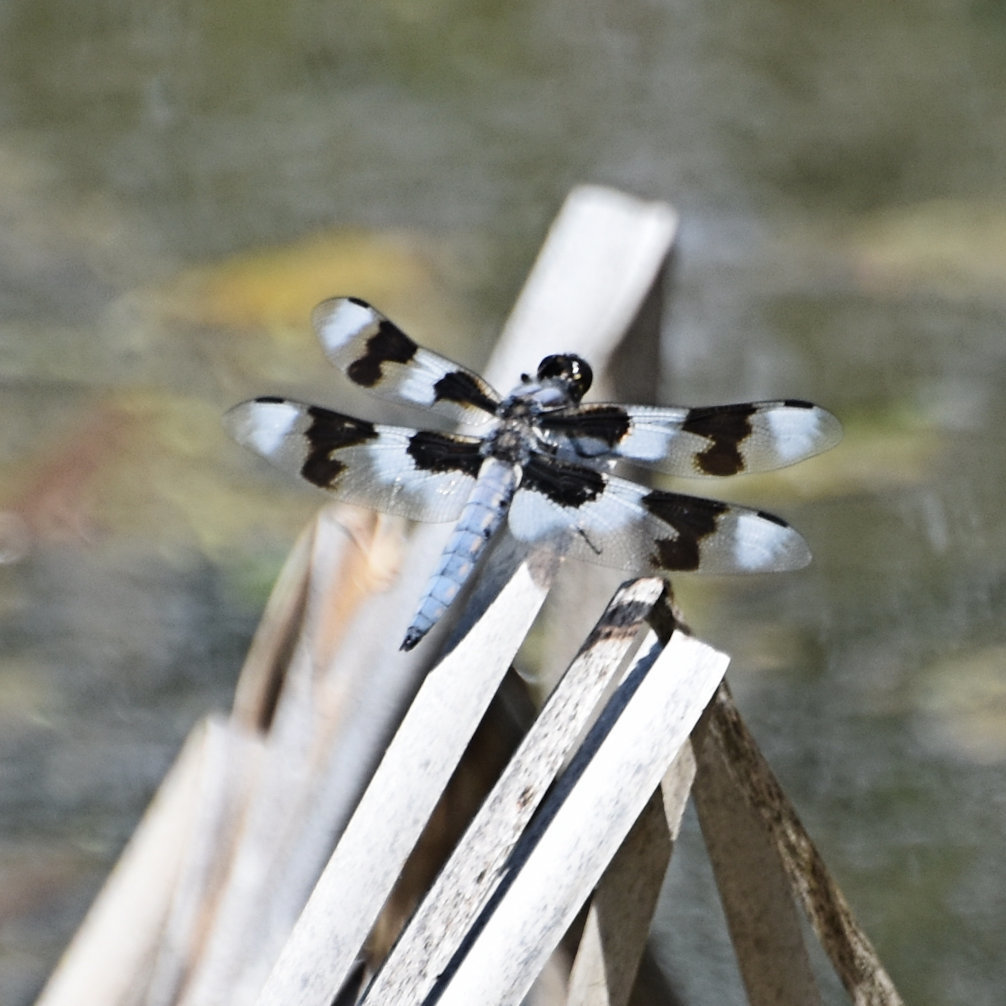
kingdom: Animalia
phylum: Arthropoda
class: Insecta
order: Odonata
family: Libellulidae
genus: Libellula
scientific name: Libellula forensis
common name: Eight-spotted skimmer
